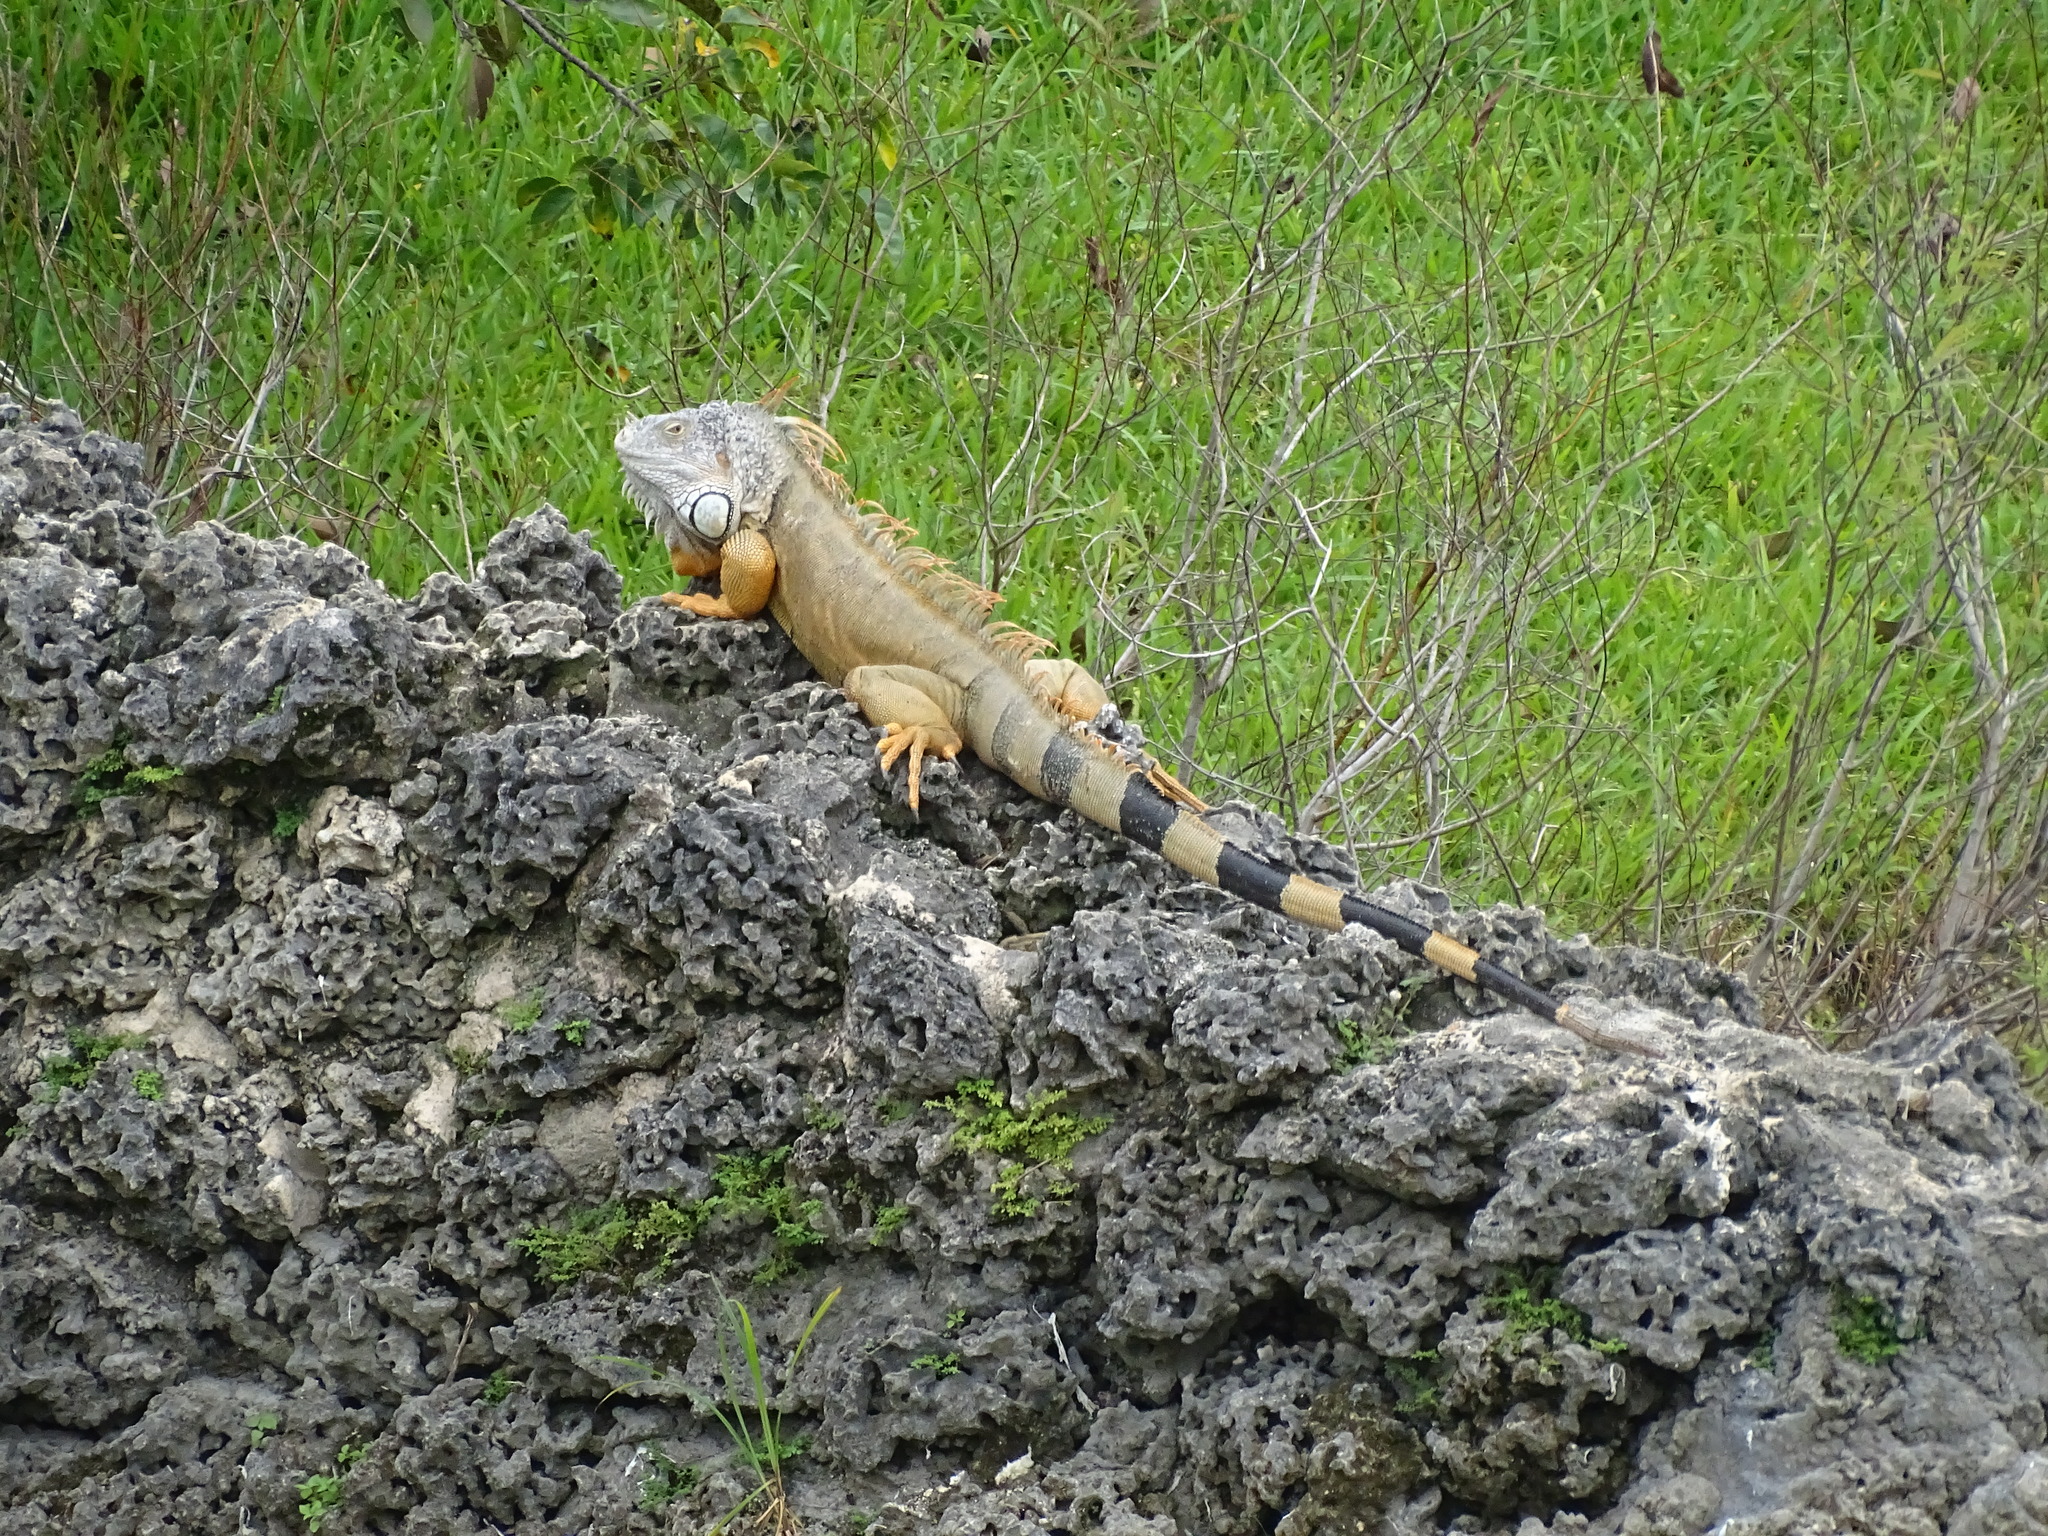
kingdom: Animalia
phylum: Chordata
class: Squamata
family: Iguanidae
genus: Iguana
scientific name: Iguana iguana
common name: Green iguana
